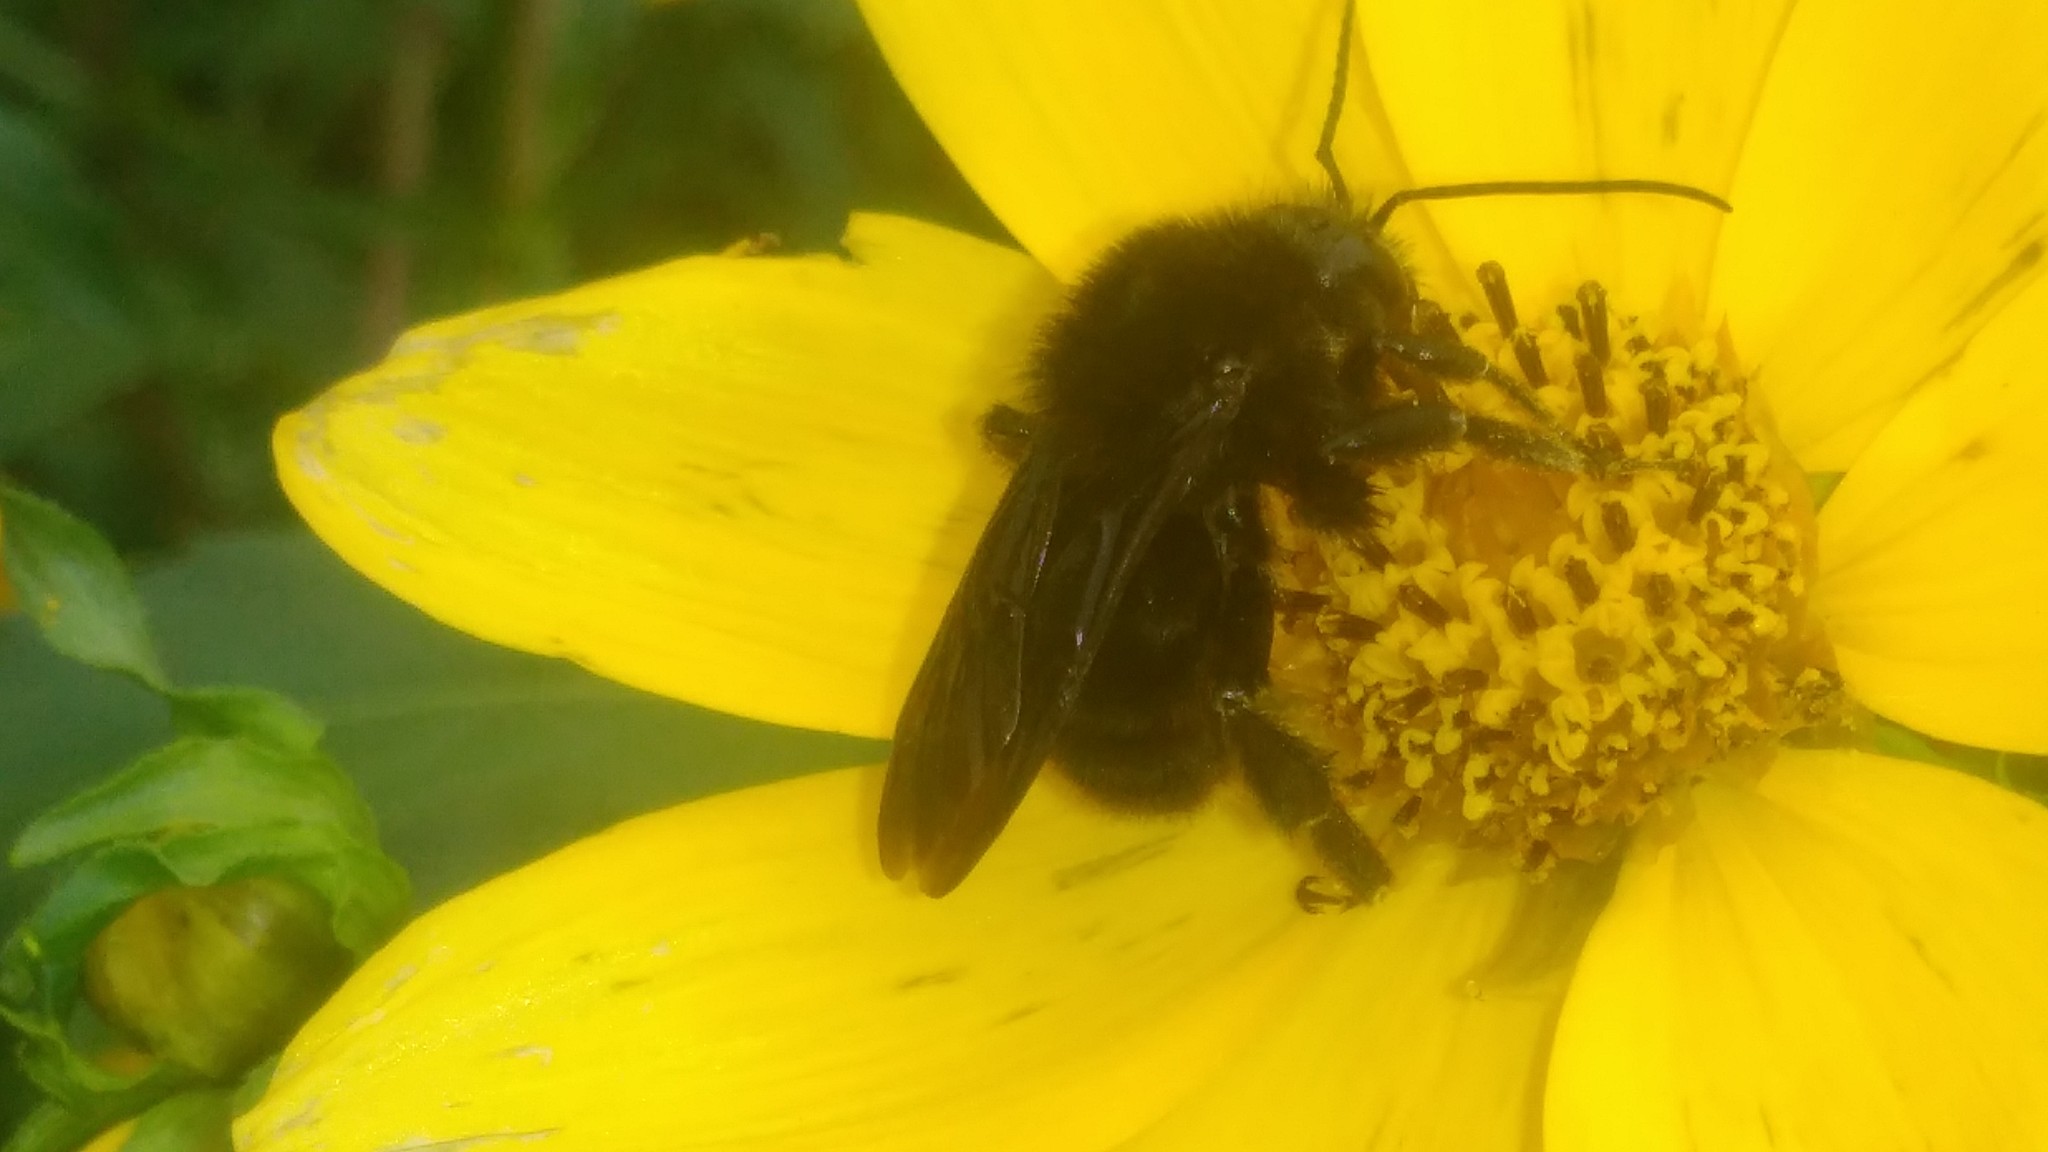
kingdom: Animalia
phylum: Arthropoda
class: Insecta
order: Hymenoptera
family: Apidae
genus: Bombus
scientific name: Bombus pauloensis
